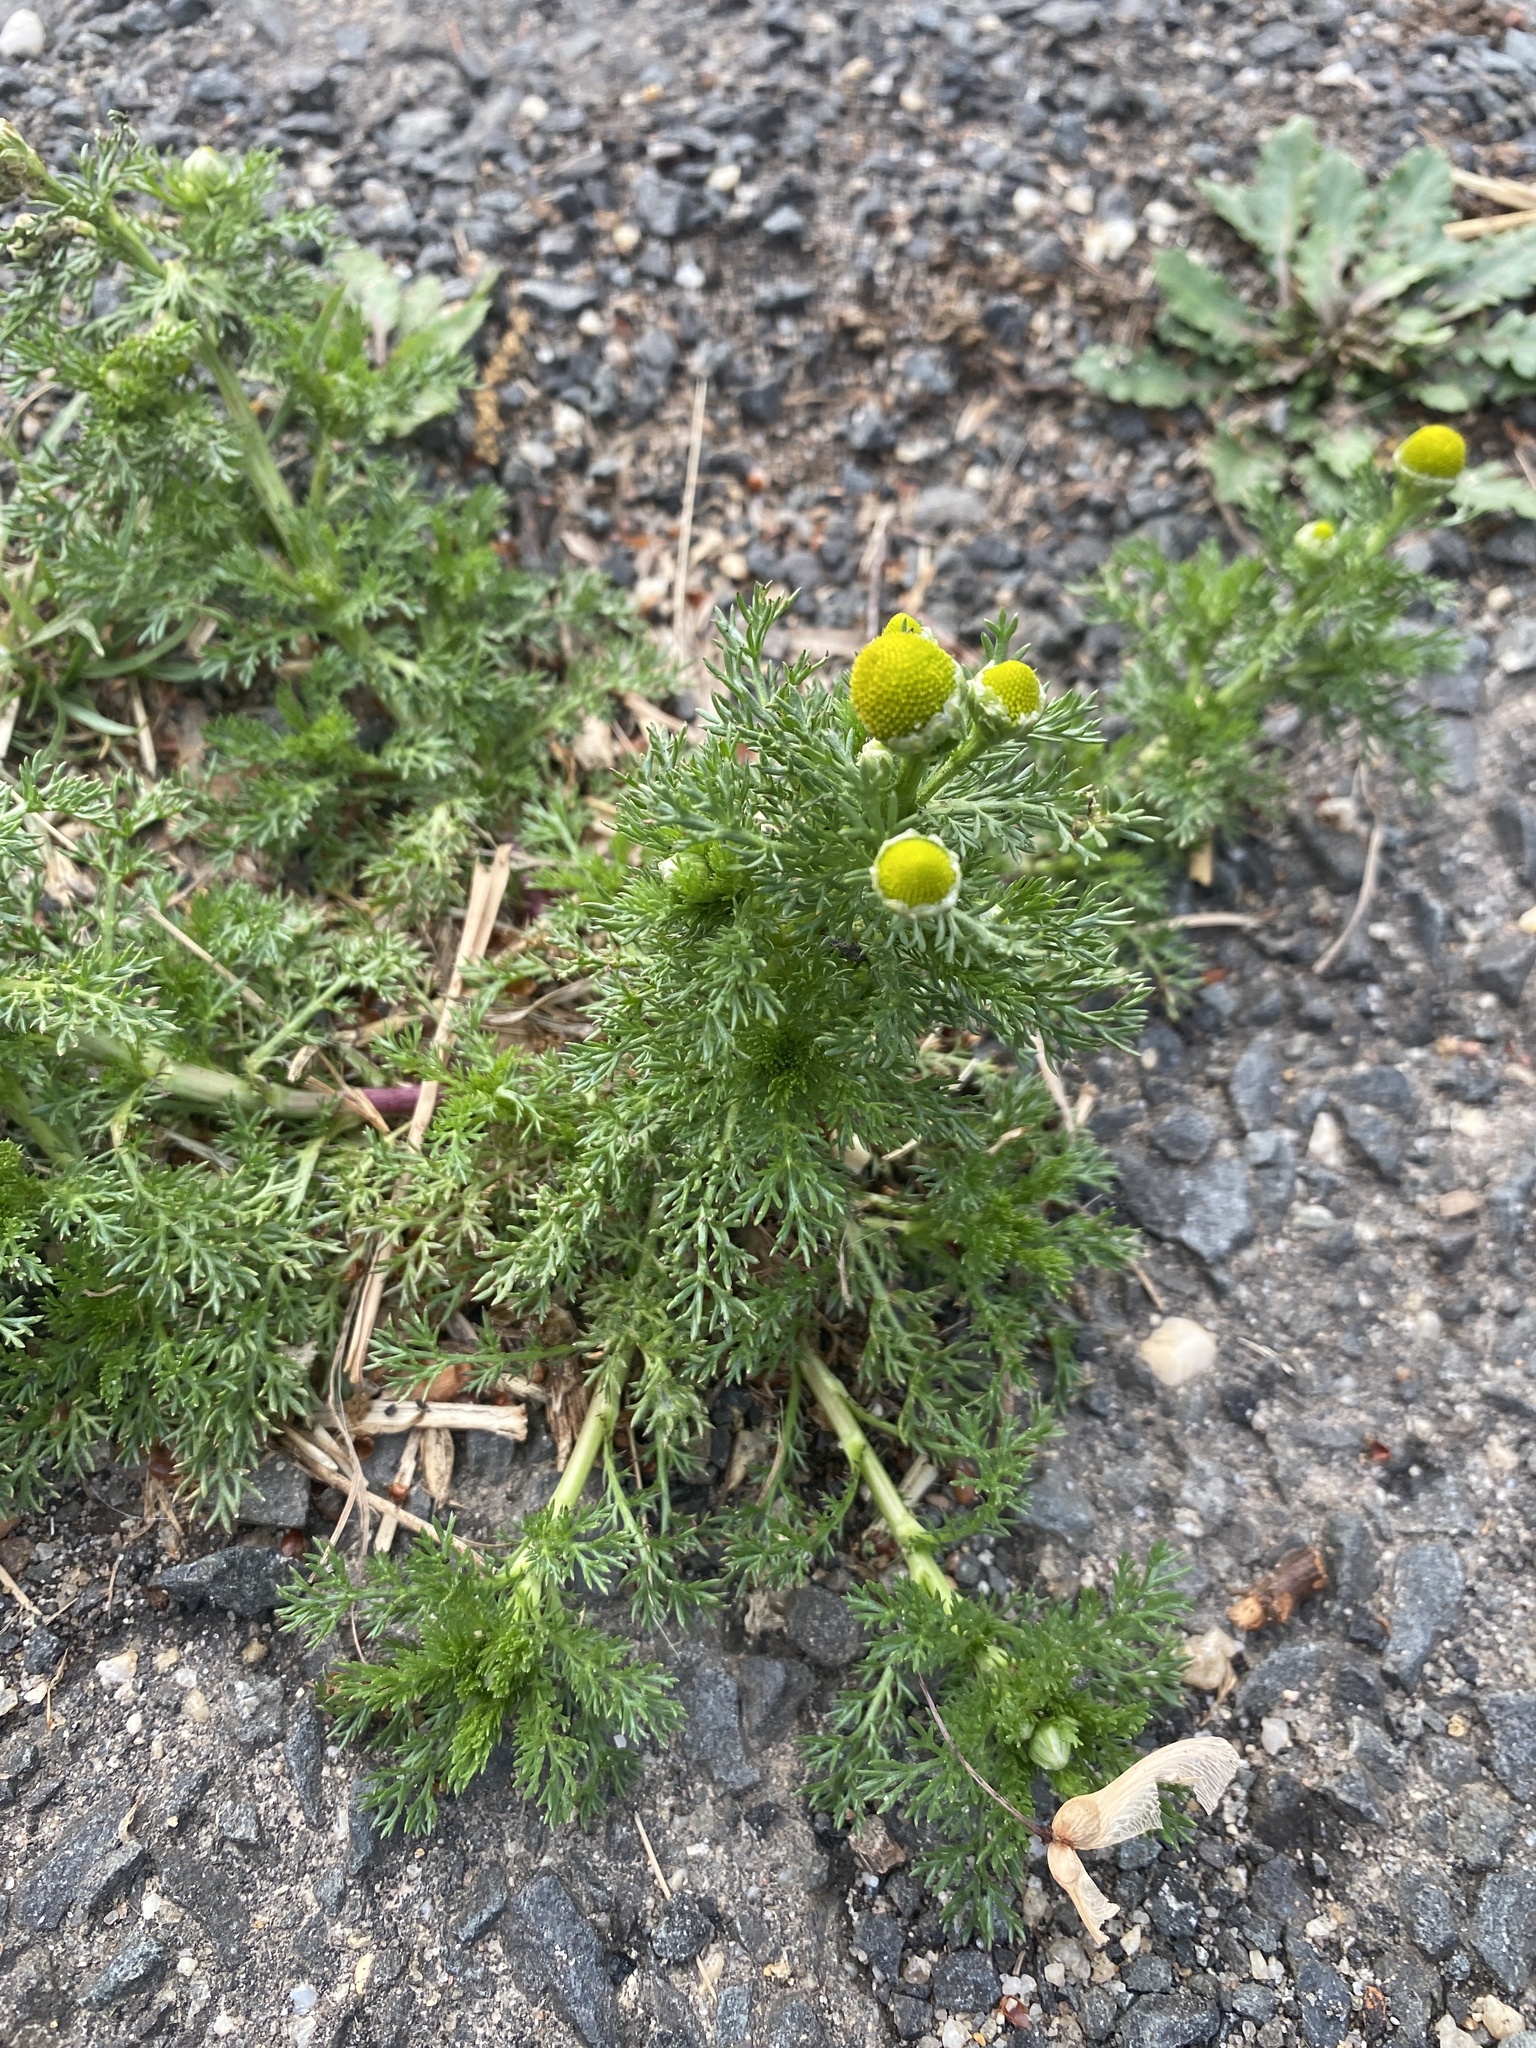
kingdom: Plantae
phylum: Tracheophyta
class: Magnoliopsida
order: Asterales
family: Asteraceae
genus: Matricaria
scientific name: Matricaria discoidea
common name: Disc mayweed
